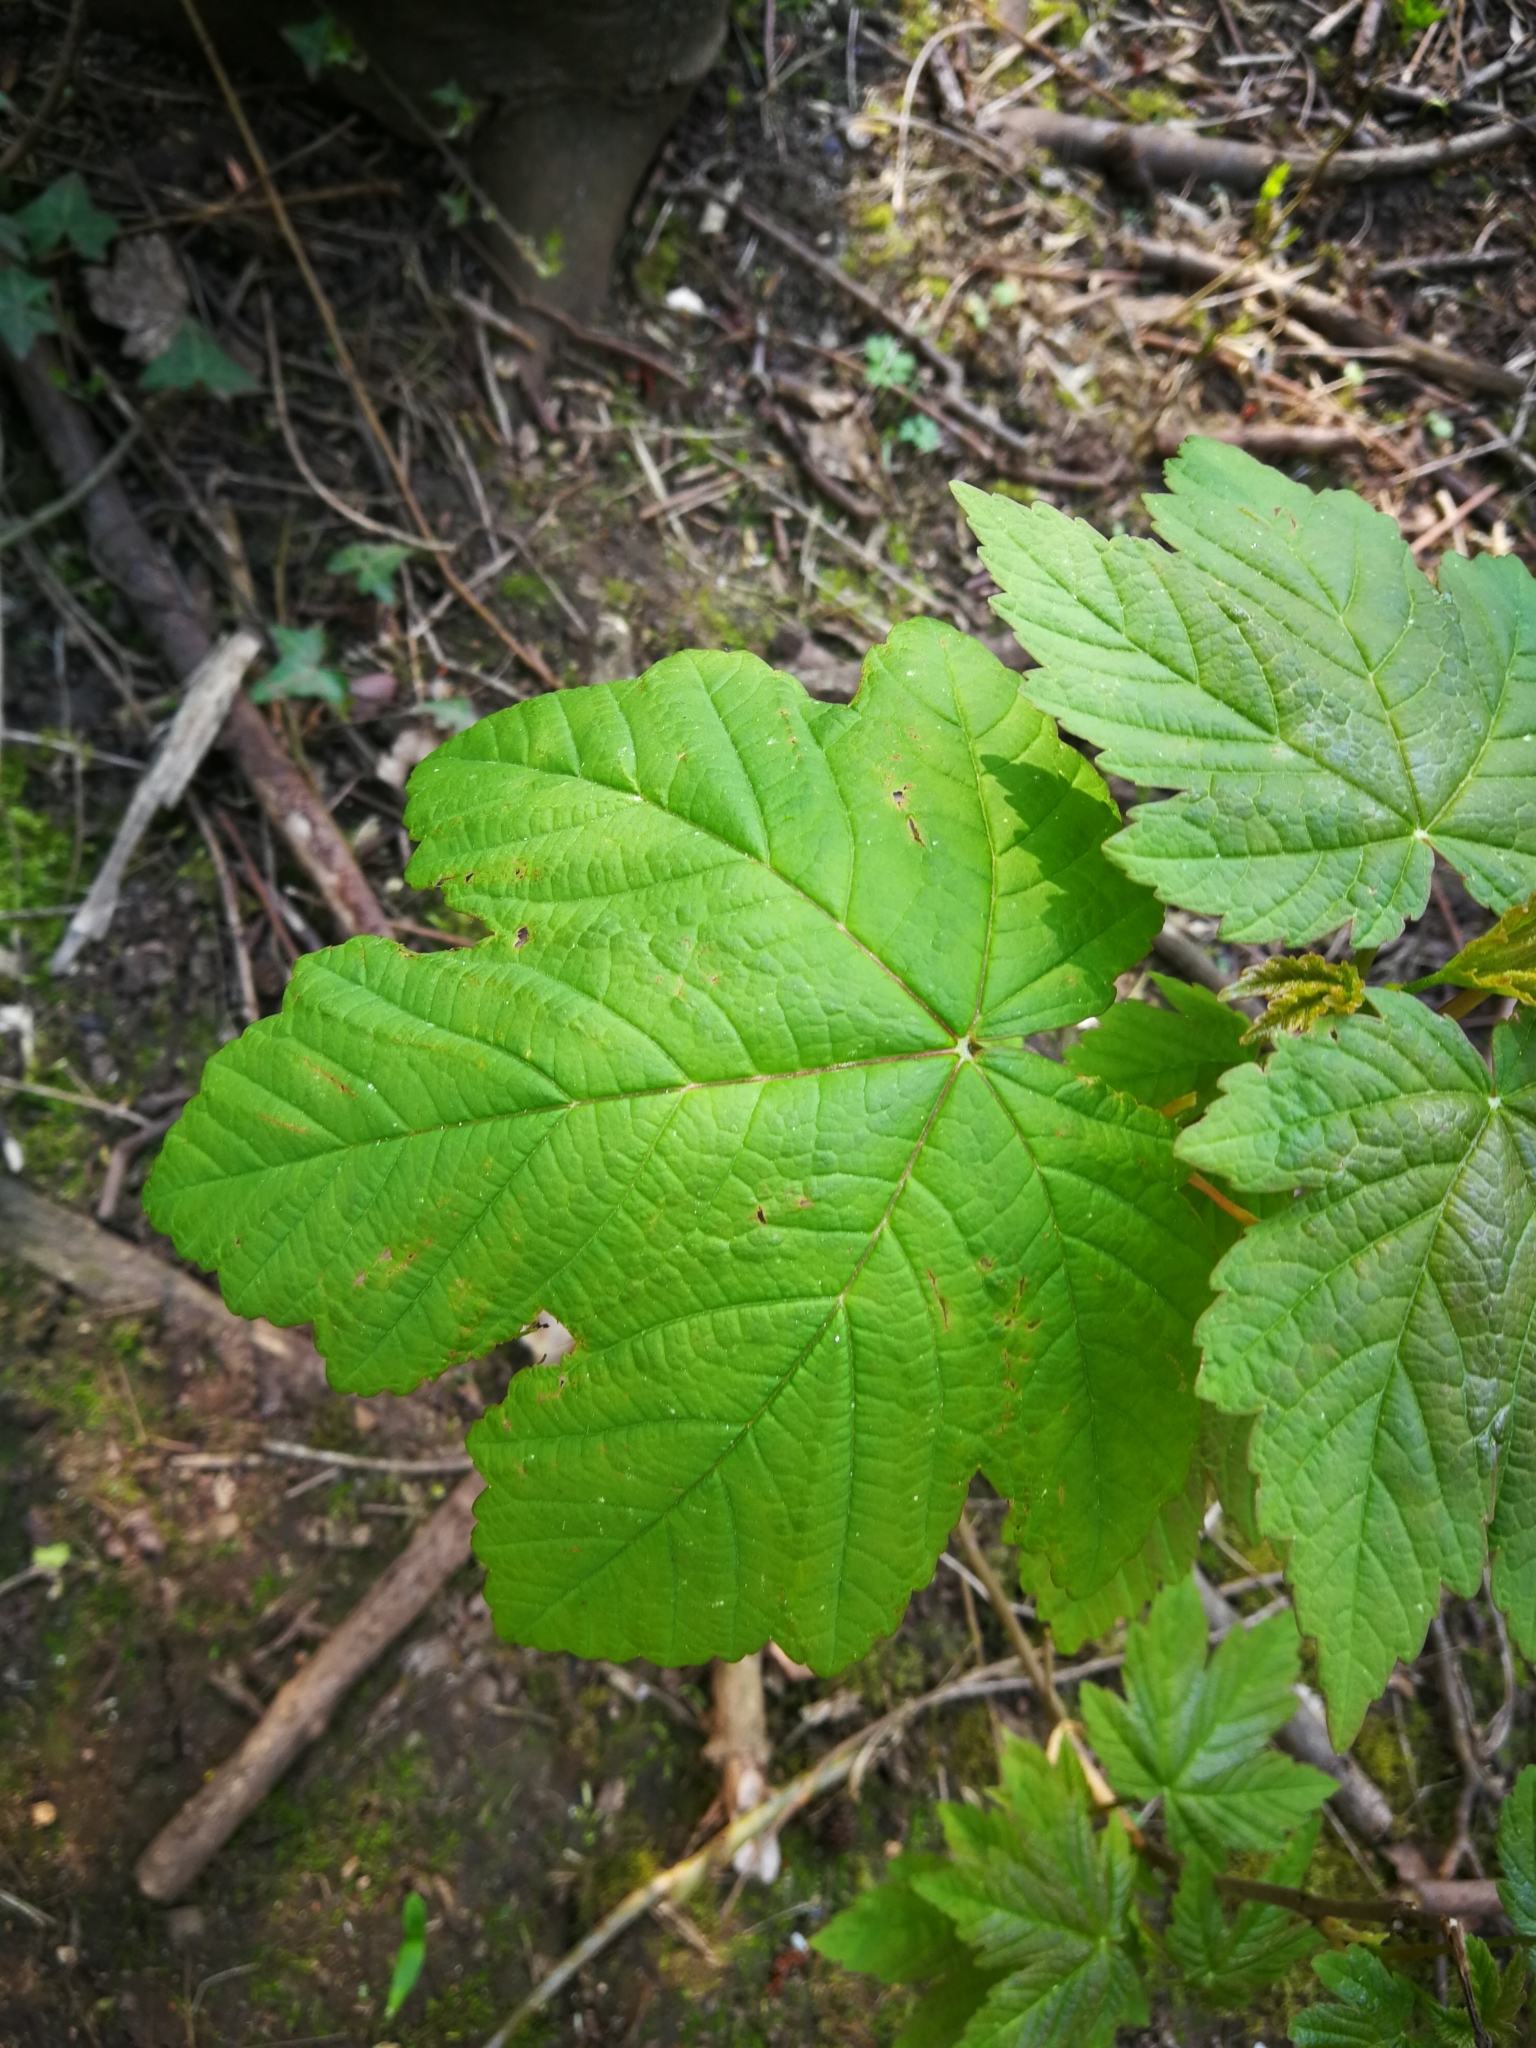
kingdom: Plantae
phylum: Tracheophyta
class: Magnoliopsida
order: Sapindales
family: Sapindaceae
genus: Acer
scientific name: Acer pseudoplatanus
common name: Sycamore
